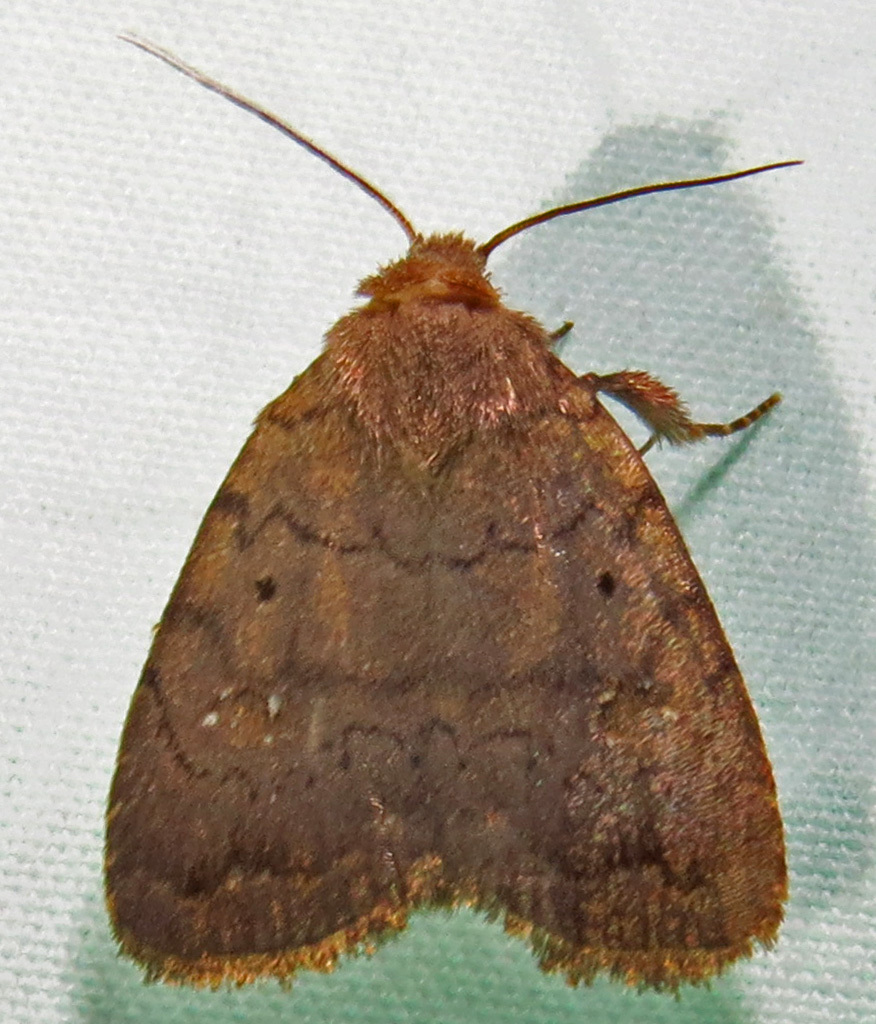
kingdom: Animalia
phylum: Arthropoda
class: Insecta
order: Lepidoptera
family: Noctuidae
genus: Athetis
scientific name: Athetis tarda
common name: Slowpoke moth
